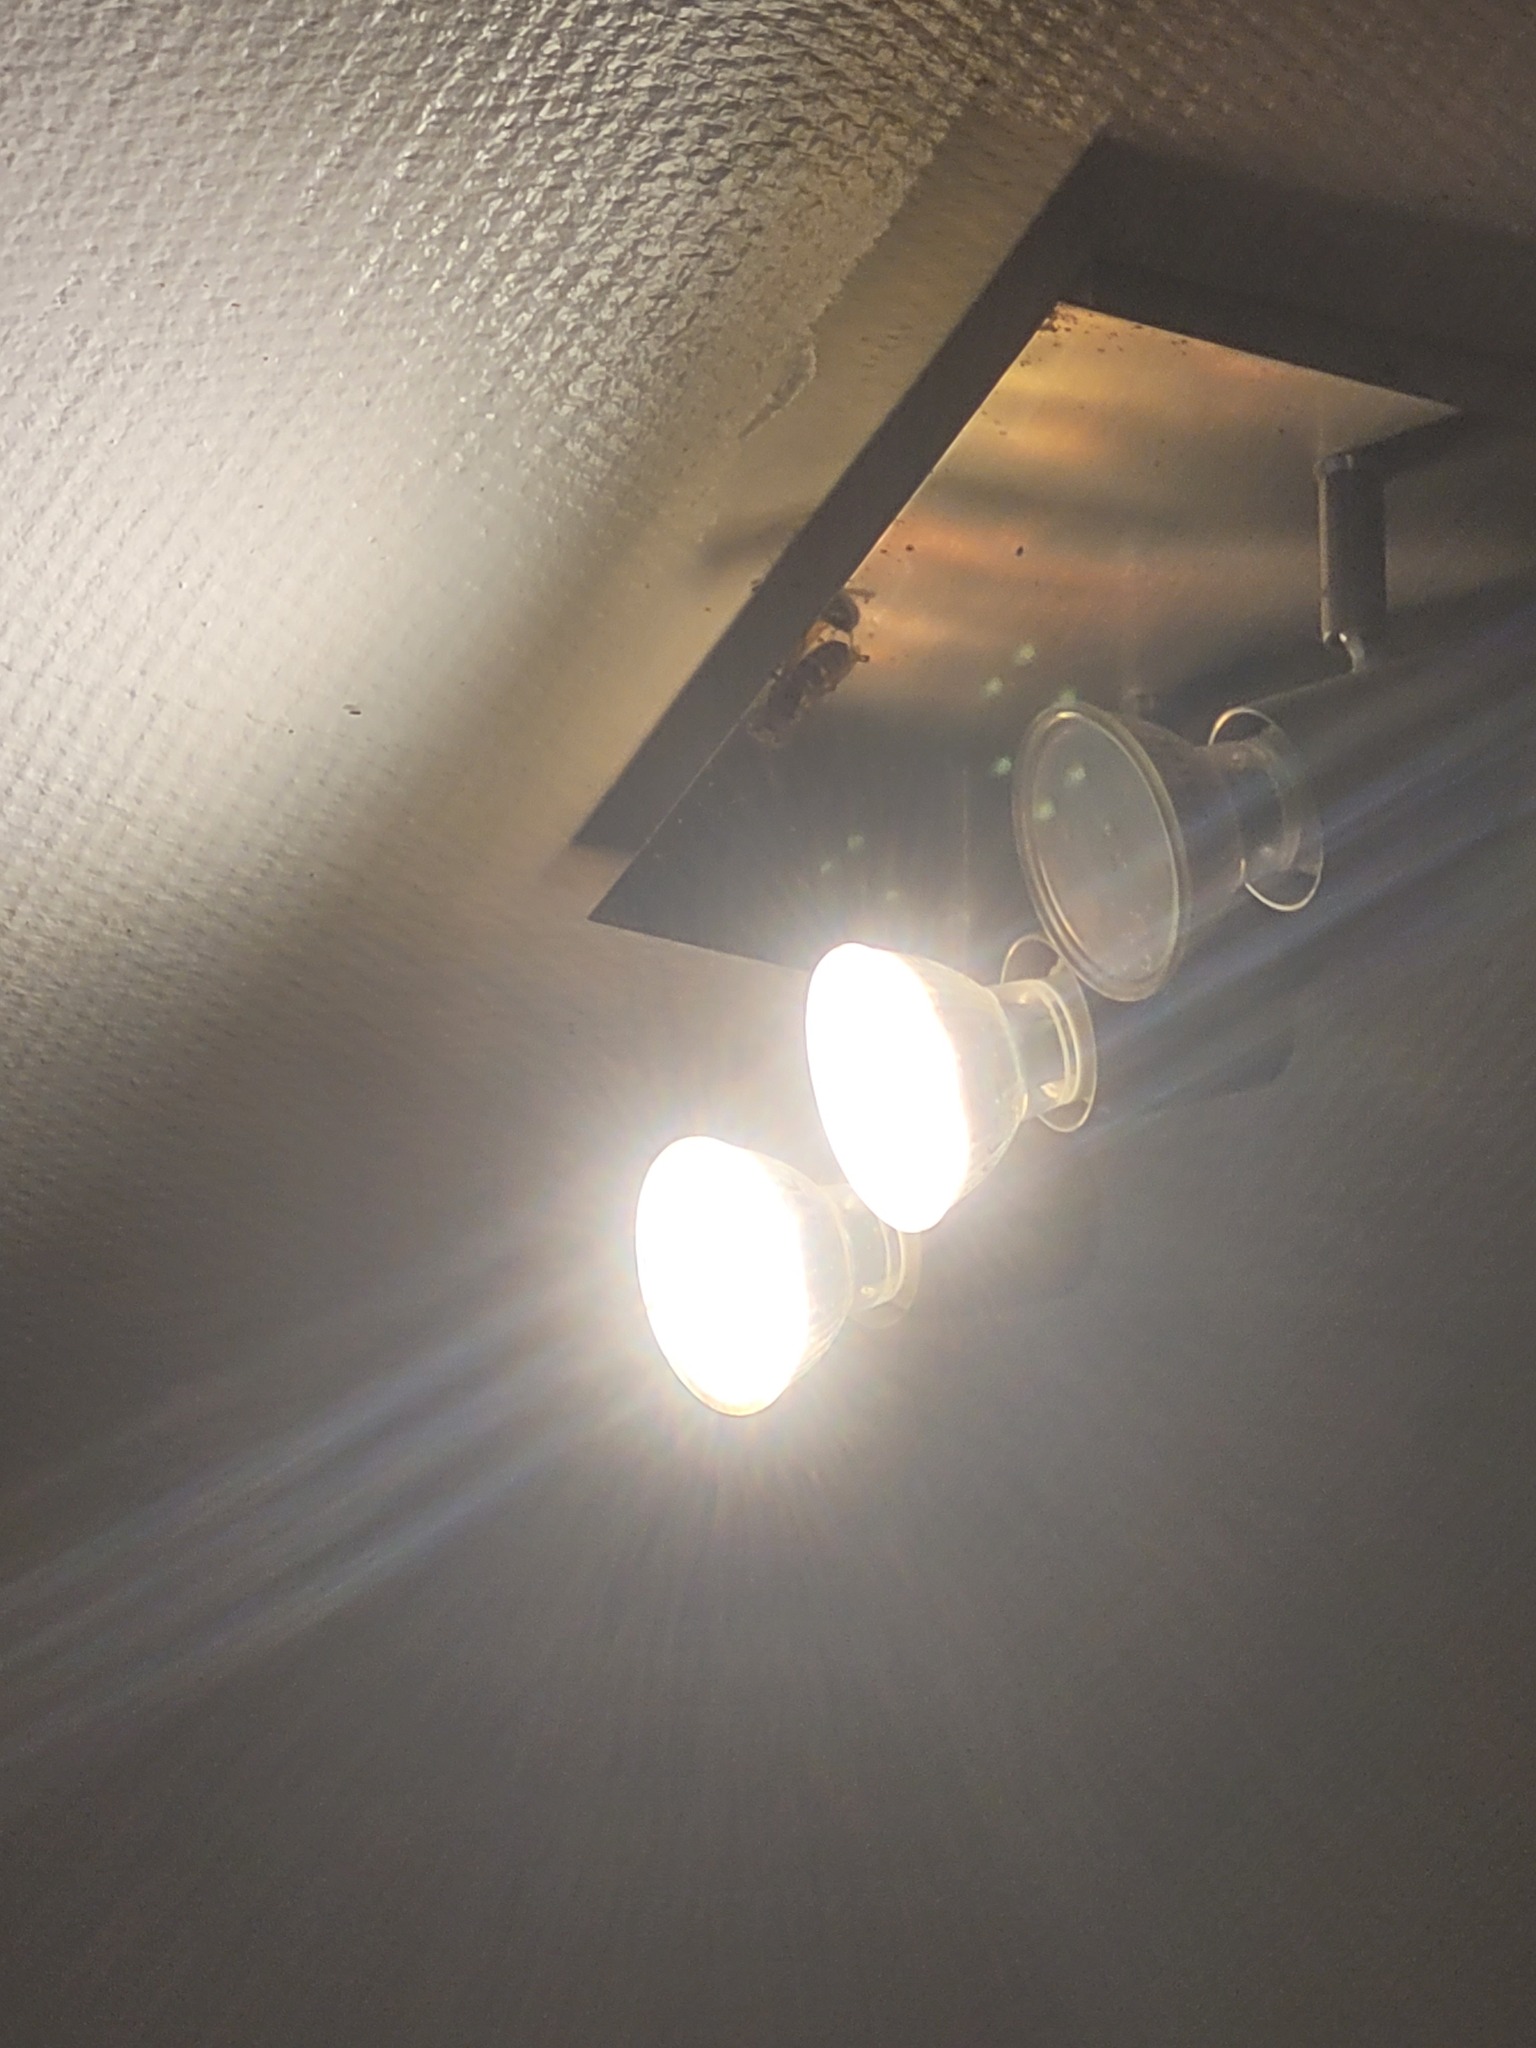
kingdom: Animalia
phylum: Arthropoda
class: Insecta
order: Hymenoptera
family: Vespidae
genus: Vespa
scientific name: Vespa crabro
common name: Hornet
